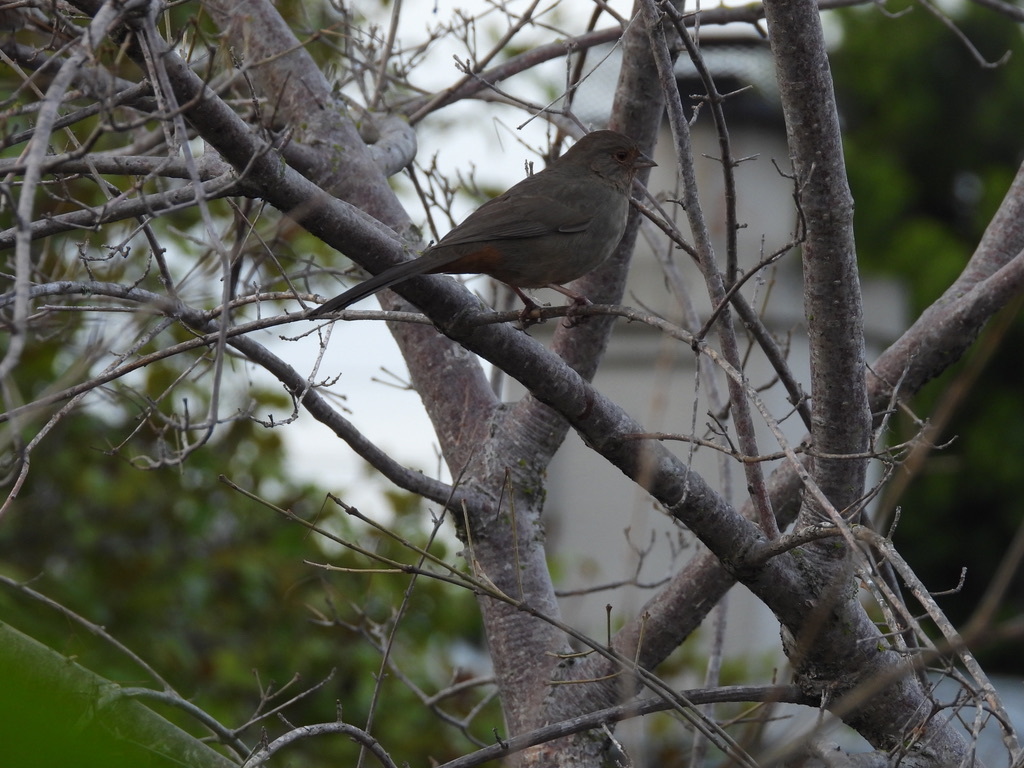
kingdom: Animalia
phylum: Chordata
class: Aves
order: Passeriformes
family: Passerellidae
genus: Melozone
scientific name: Melozone crissalis
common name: California towhee
